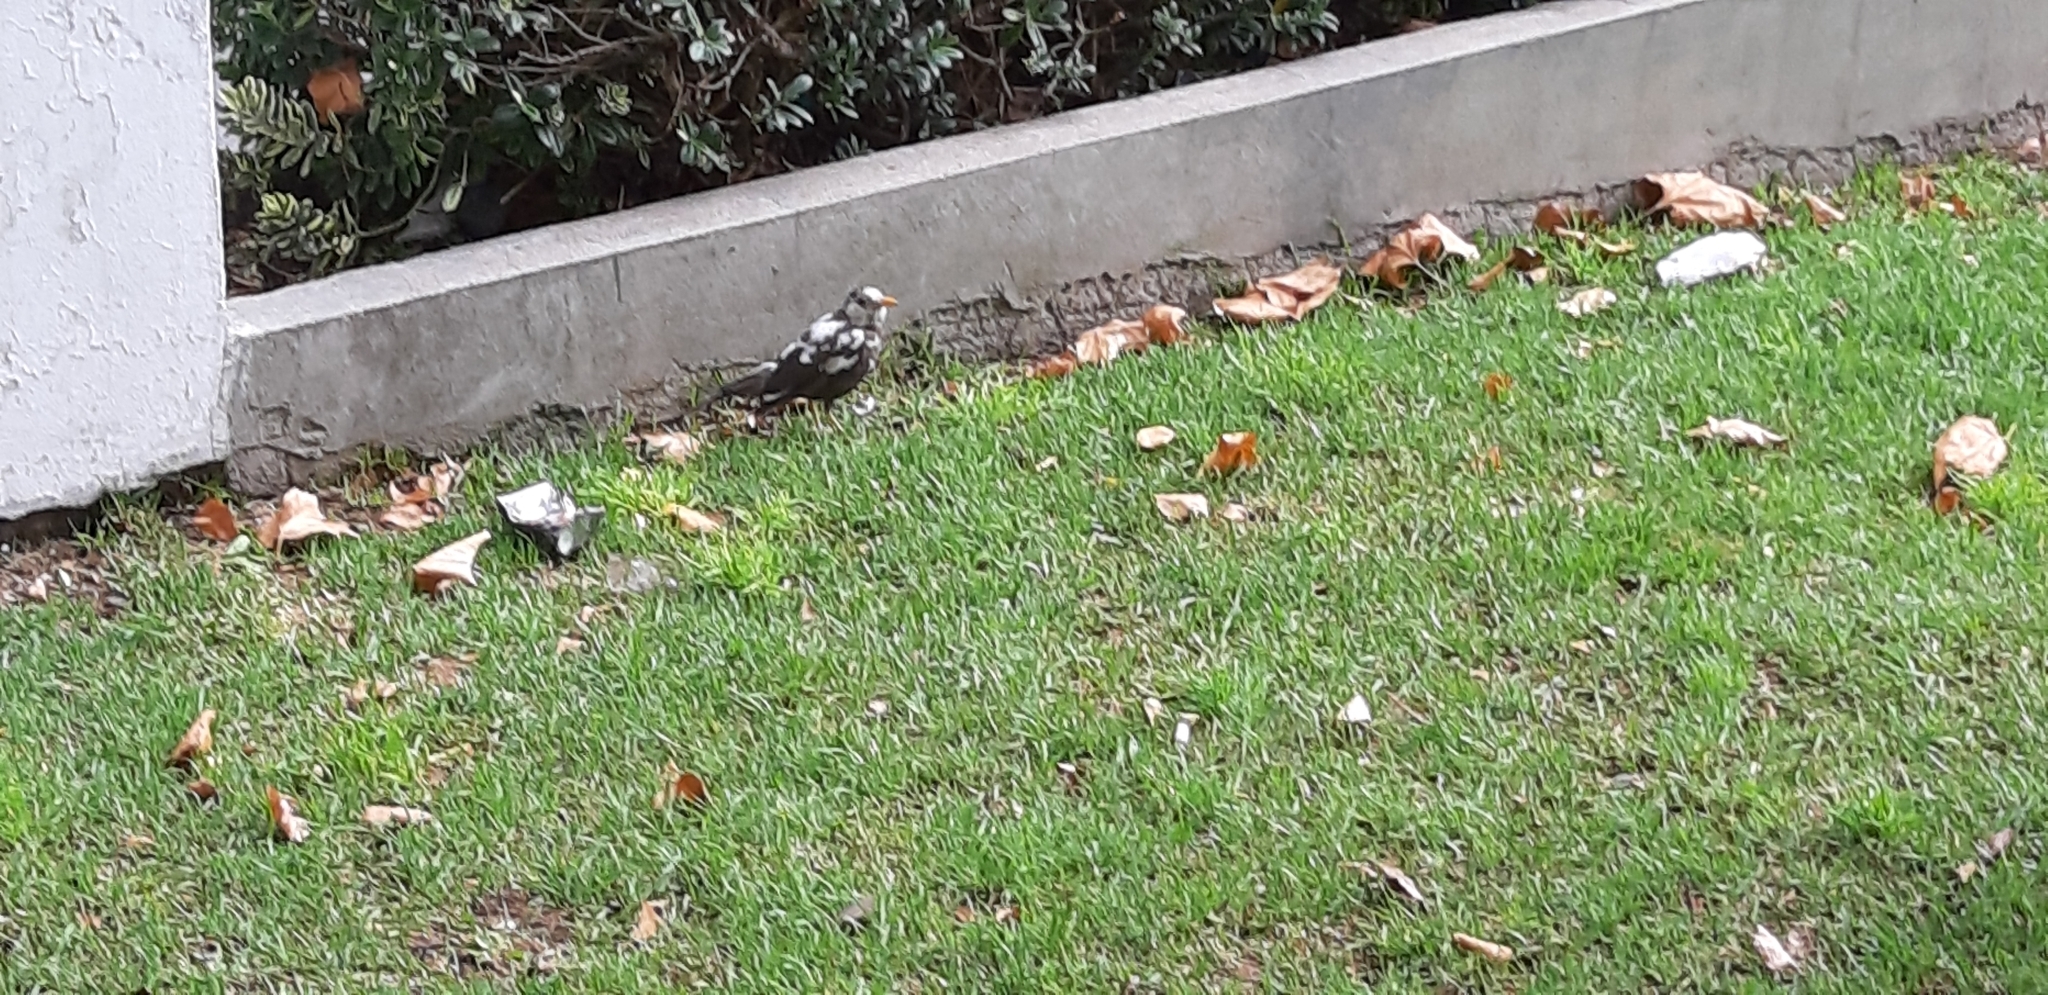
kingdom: Animalia
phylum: Chordata
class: Aves
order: Passeriformes
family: Turdidae
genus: Turdus
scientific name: Turdus chiguanco
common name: Chiguanco thrush
